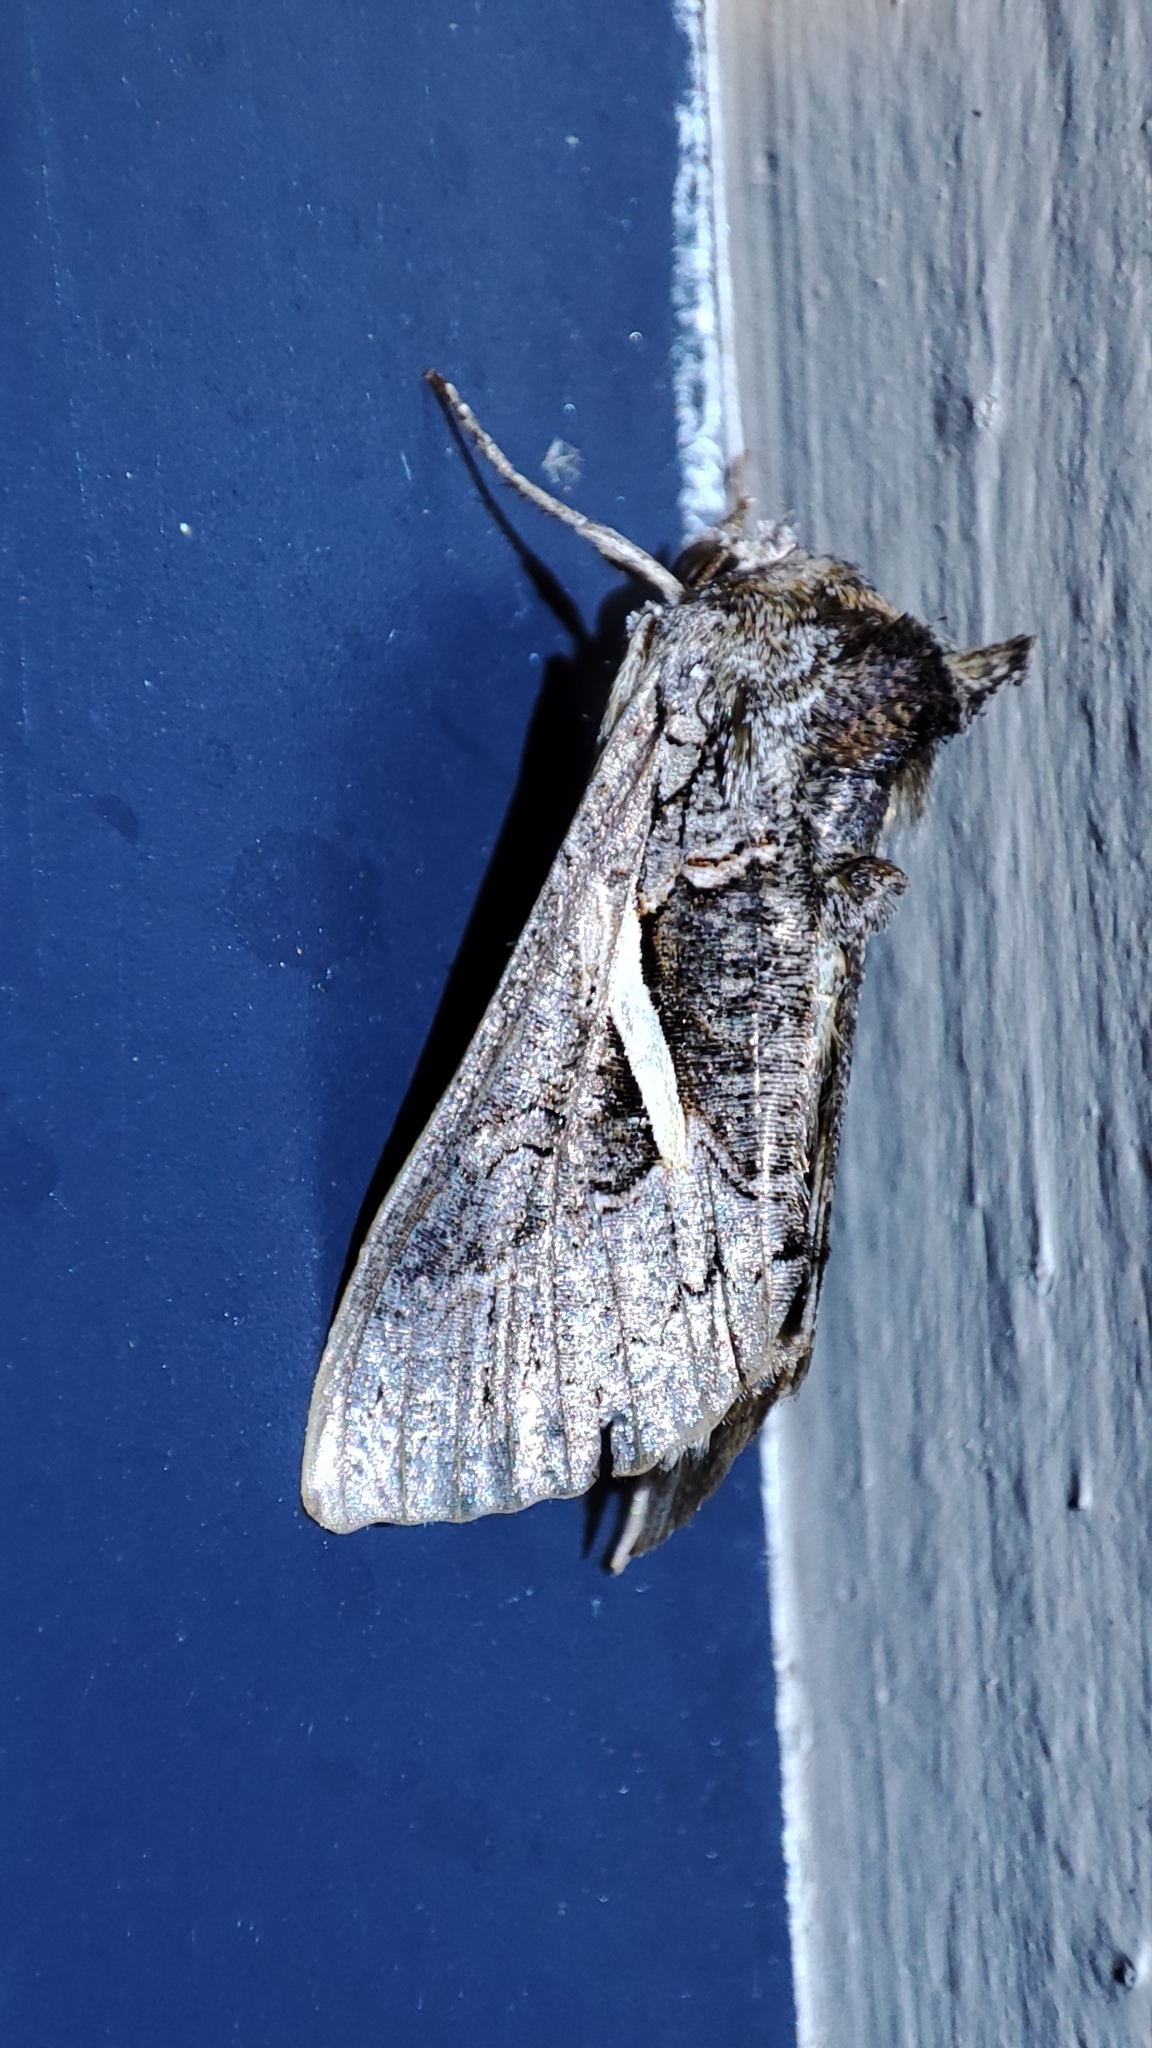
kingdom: Animalia
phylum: Arthropoda
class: Insecta
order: Lepidoptera
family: Noctuidae
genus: Vittaplusia
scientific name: Vittaplusia vittata
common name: Streaked plusia
